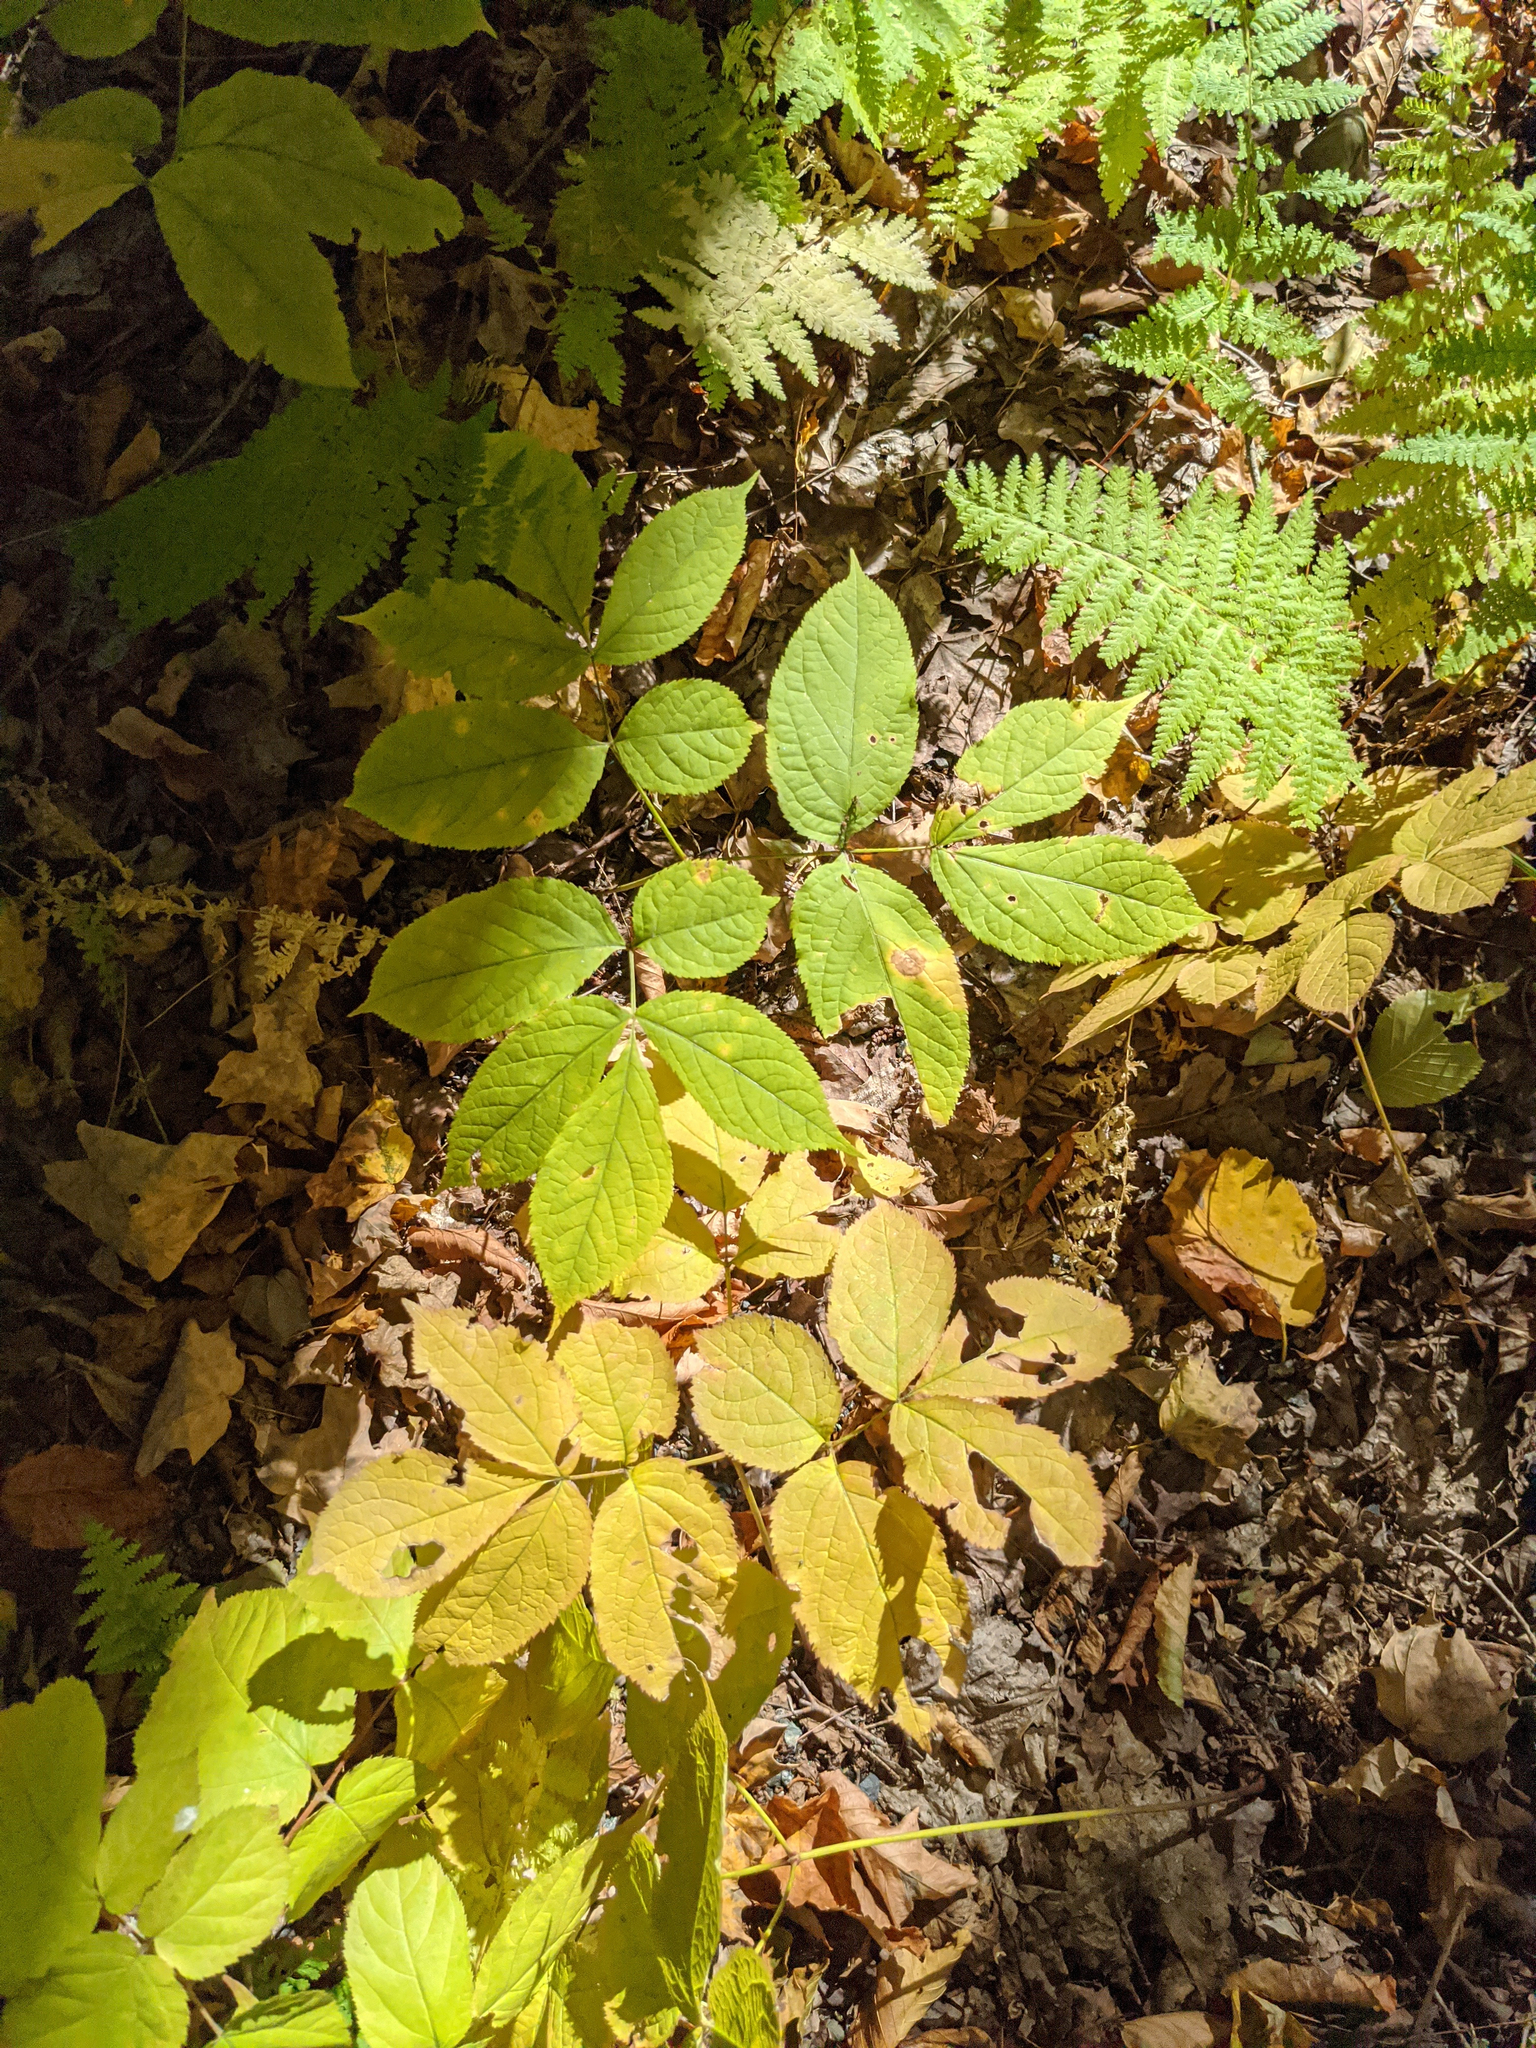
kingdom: Plantae
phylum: Tracheophyta
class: Magnoliopsida
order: Apiales
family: Araliaceae
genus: Aralia
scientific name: Aralia nudicaulis
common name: Wild sarsaparilla
